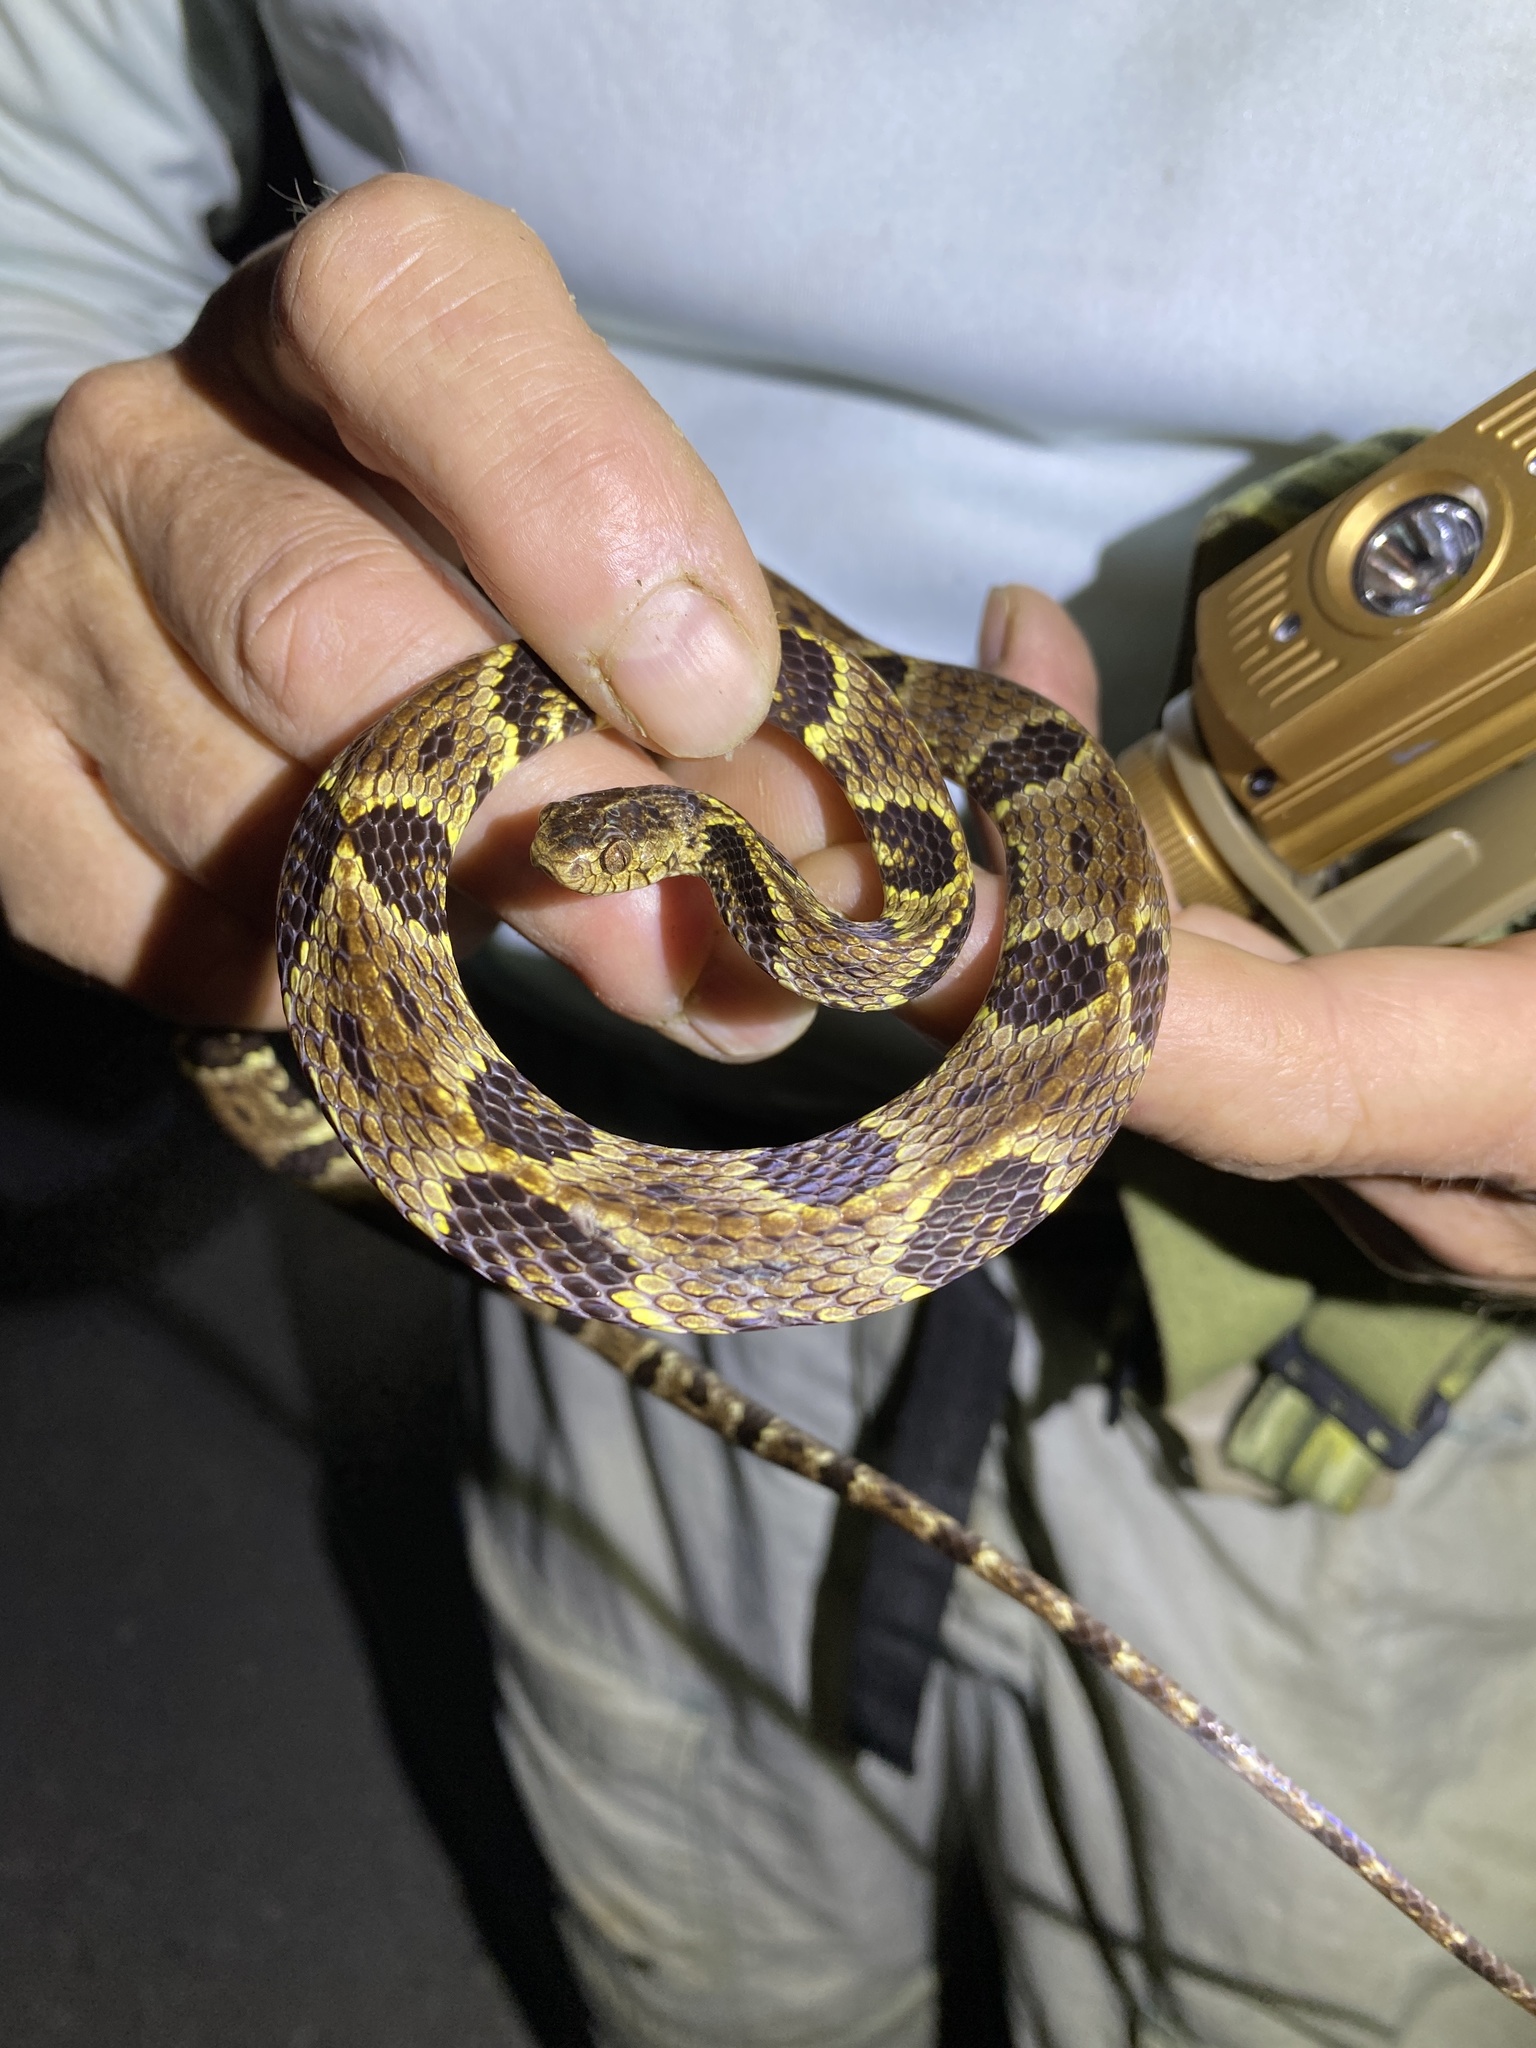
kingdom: Animalia
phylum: Chordata
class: Squamata
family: Colubridae
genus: Dipsas
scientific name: Dipsas trinitatis
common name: Trinidad snail-eater
